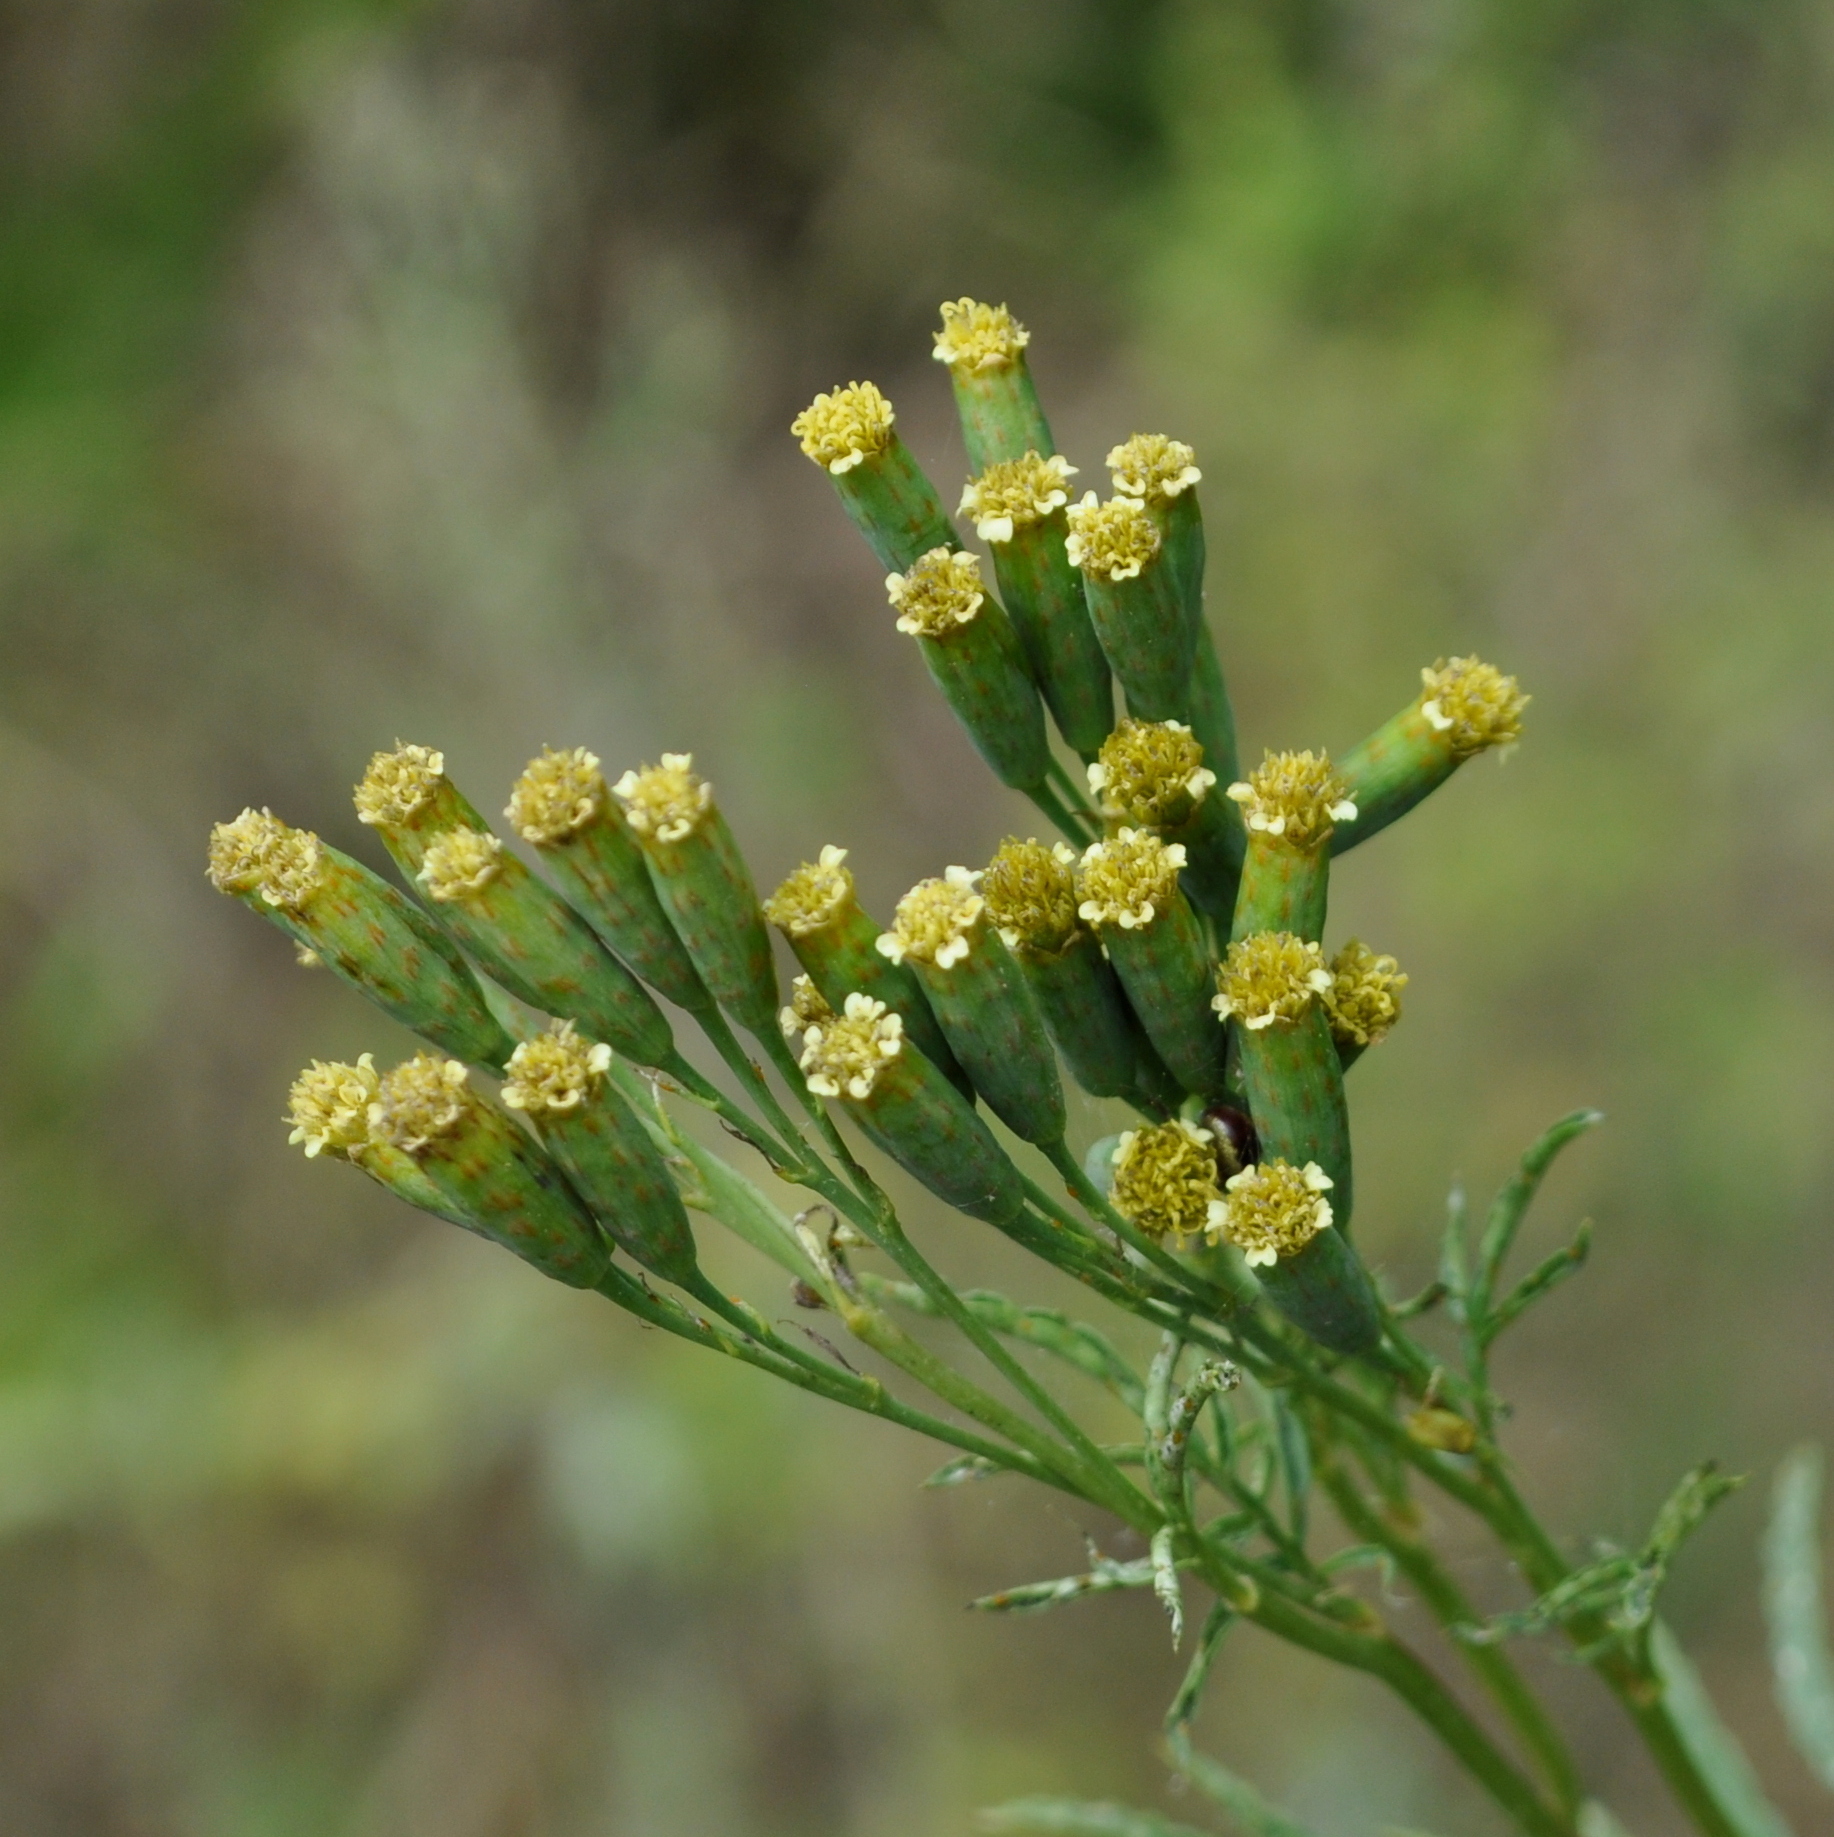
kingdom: Plantae
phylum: Tracheophyta
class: Magnoliopsida
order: Asterales
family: Asteraceae
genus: Tagetes
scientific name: Tagetes ostenii
